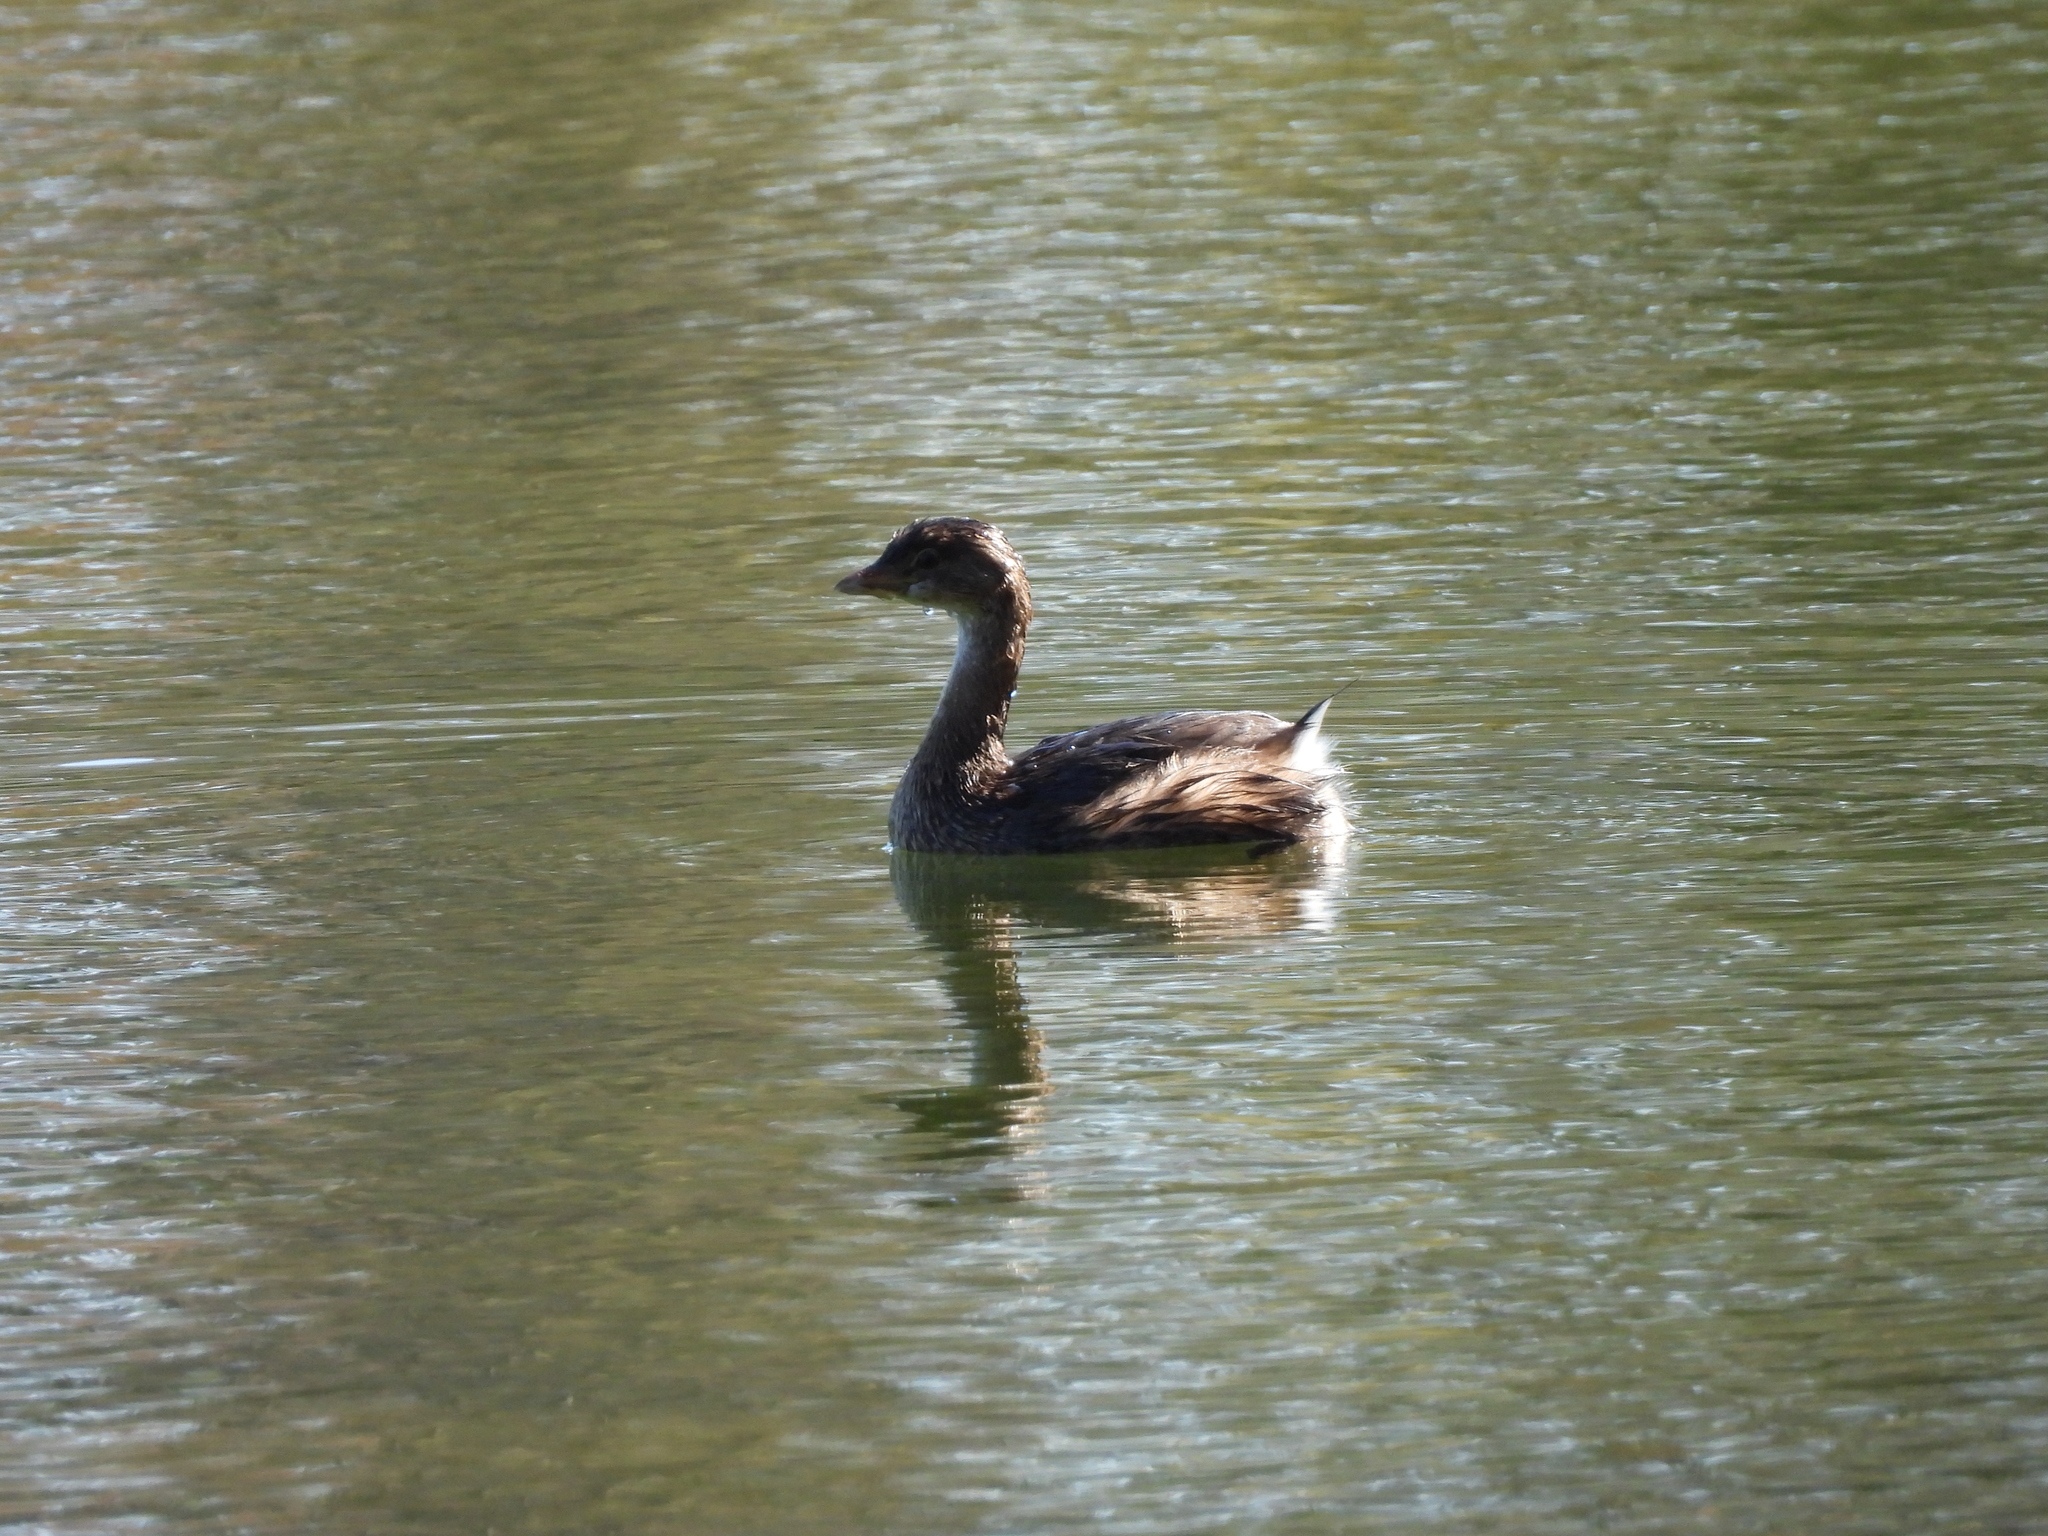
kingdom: Animalia
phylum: Chordata
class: Aves
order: Podicipediformes
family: Podicipedidae
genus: Podilymbus
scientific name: Podilymbus podiceps
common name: Pied-billed grebe
